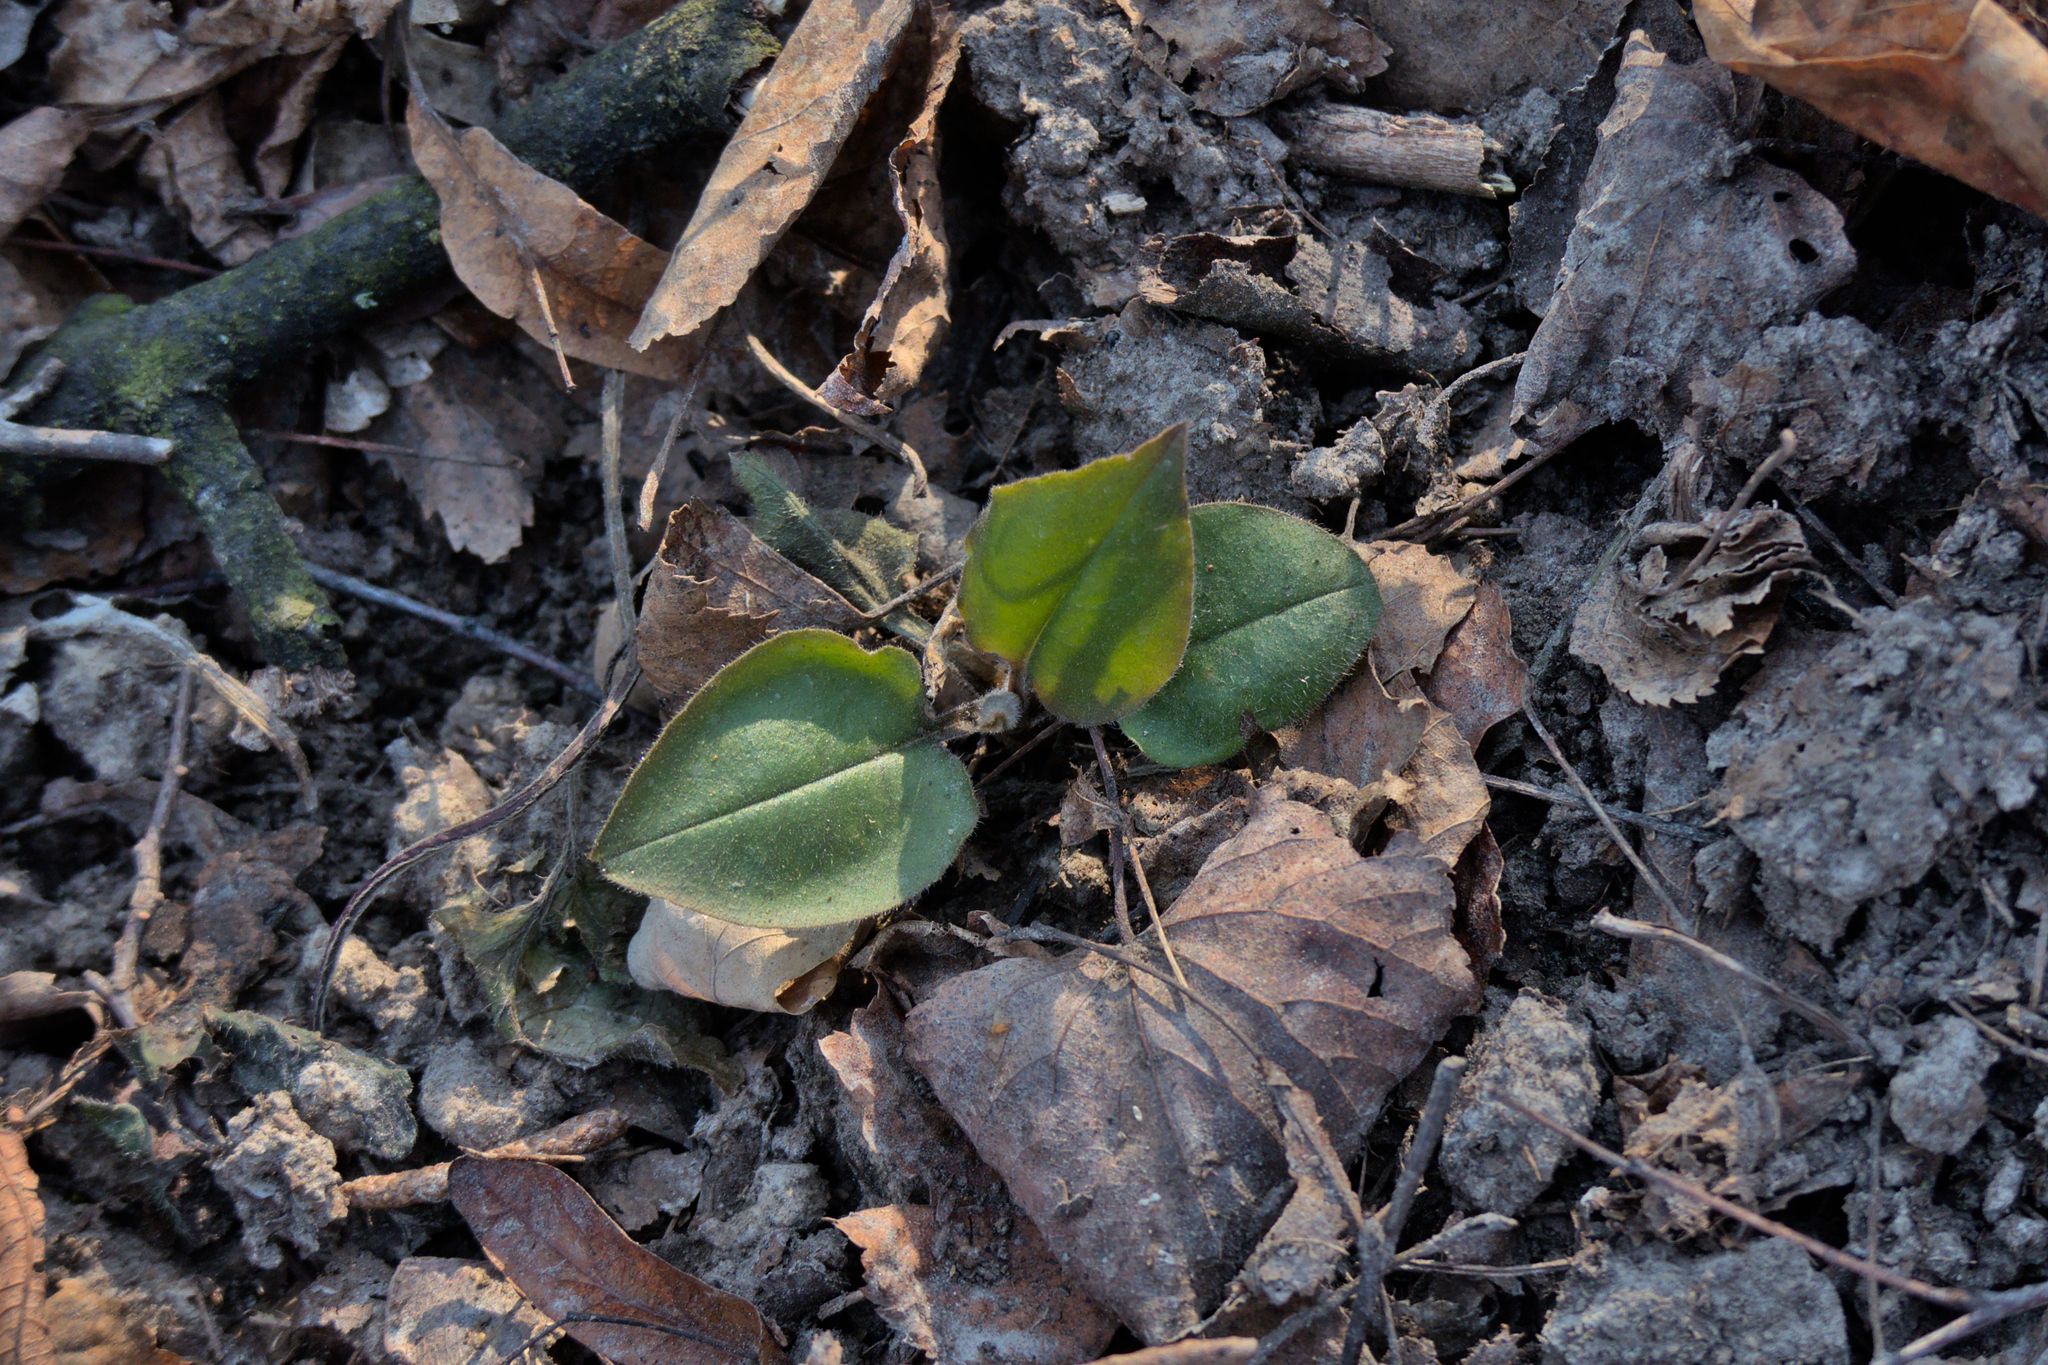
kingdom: Plantae
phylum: Tracheophyta
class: Magnoliopsida
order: Boraginales
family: Boraginaceae
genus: Pulmonaria
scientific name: Pulmonaria obscura
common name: Suffolk lungwort
